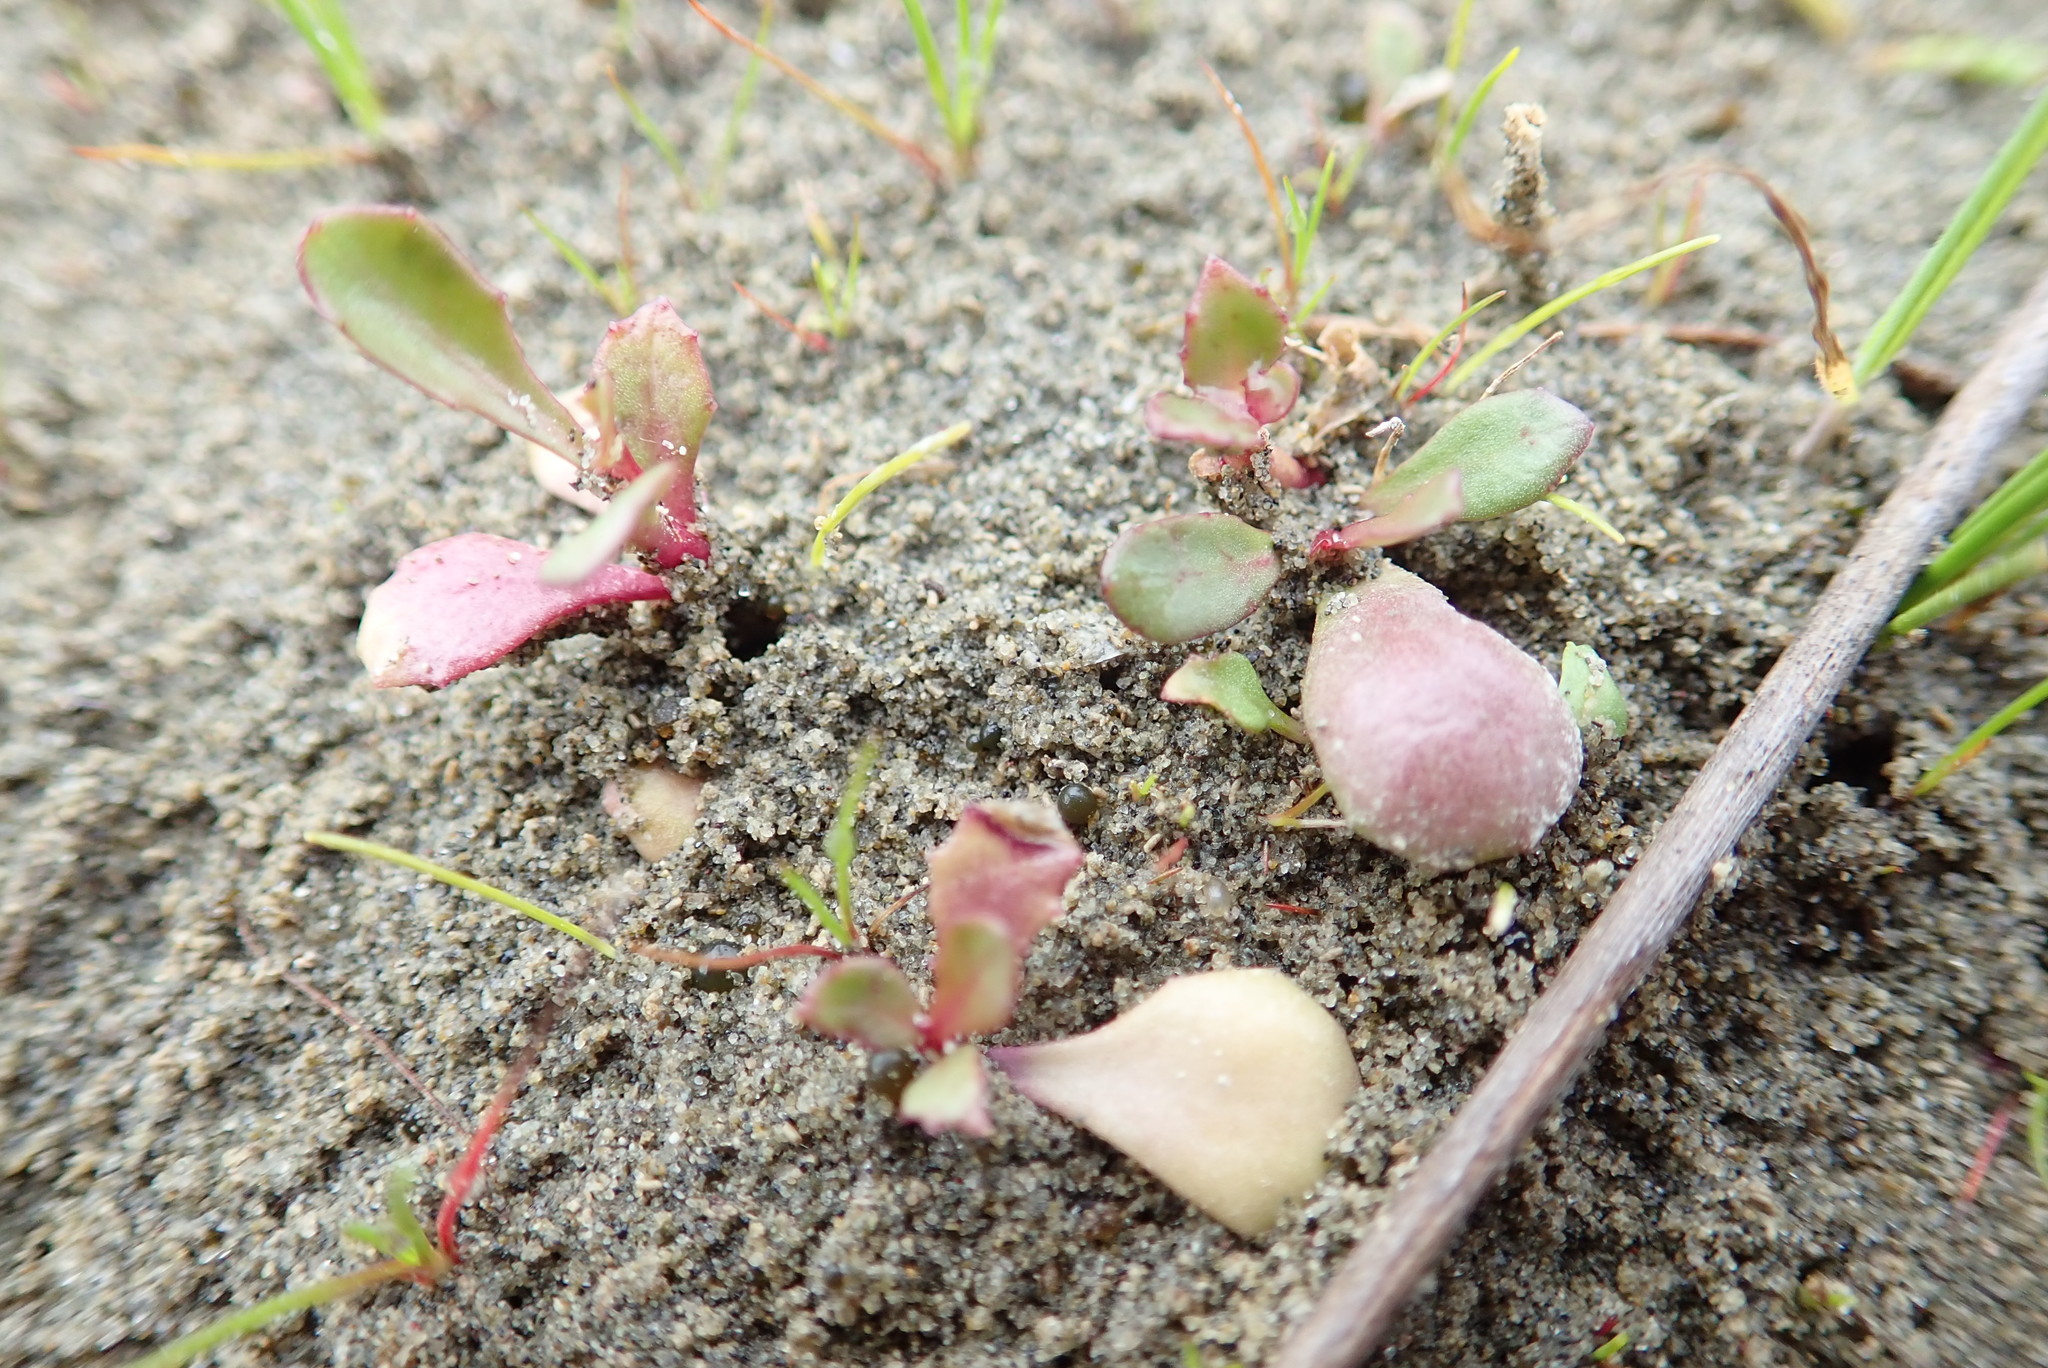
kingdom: Plantae
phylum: Tracheophyta
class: Magnoliopsida
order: Asterales
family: Campanulaceae
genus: Lobelia
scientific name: Lobelia anceps
